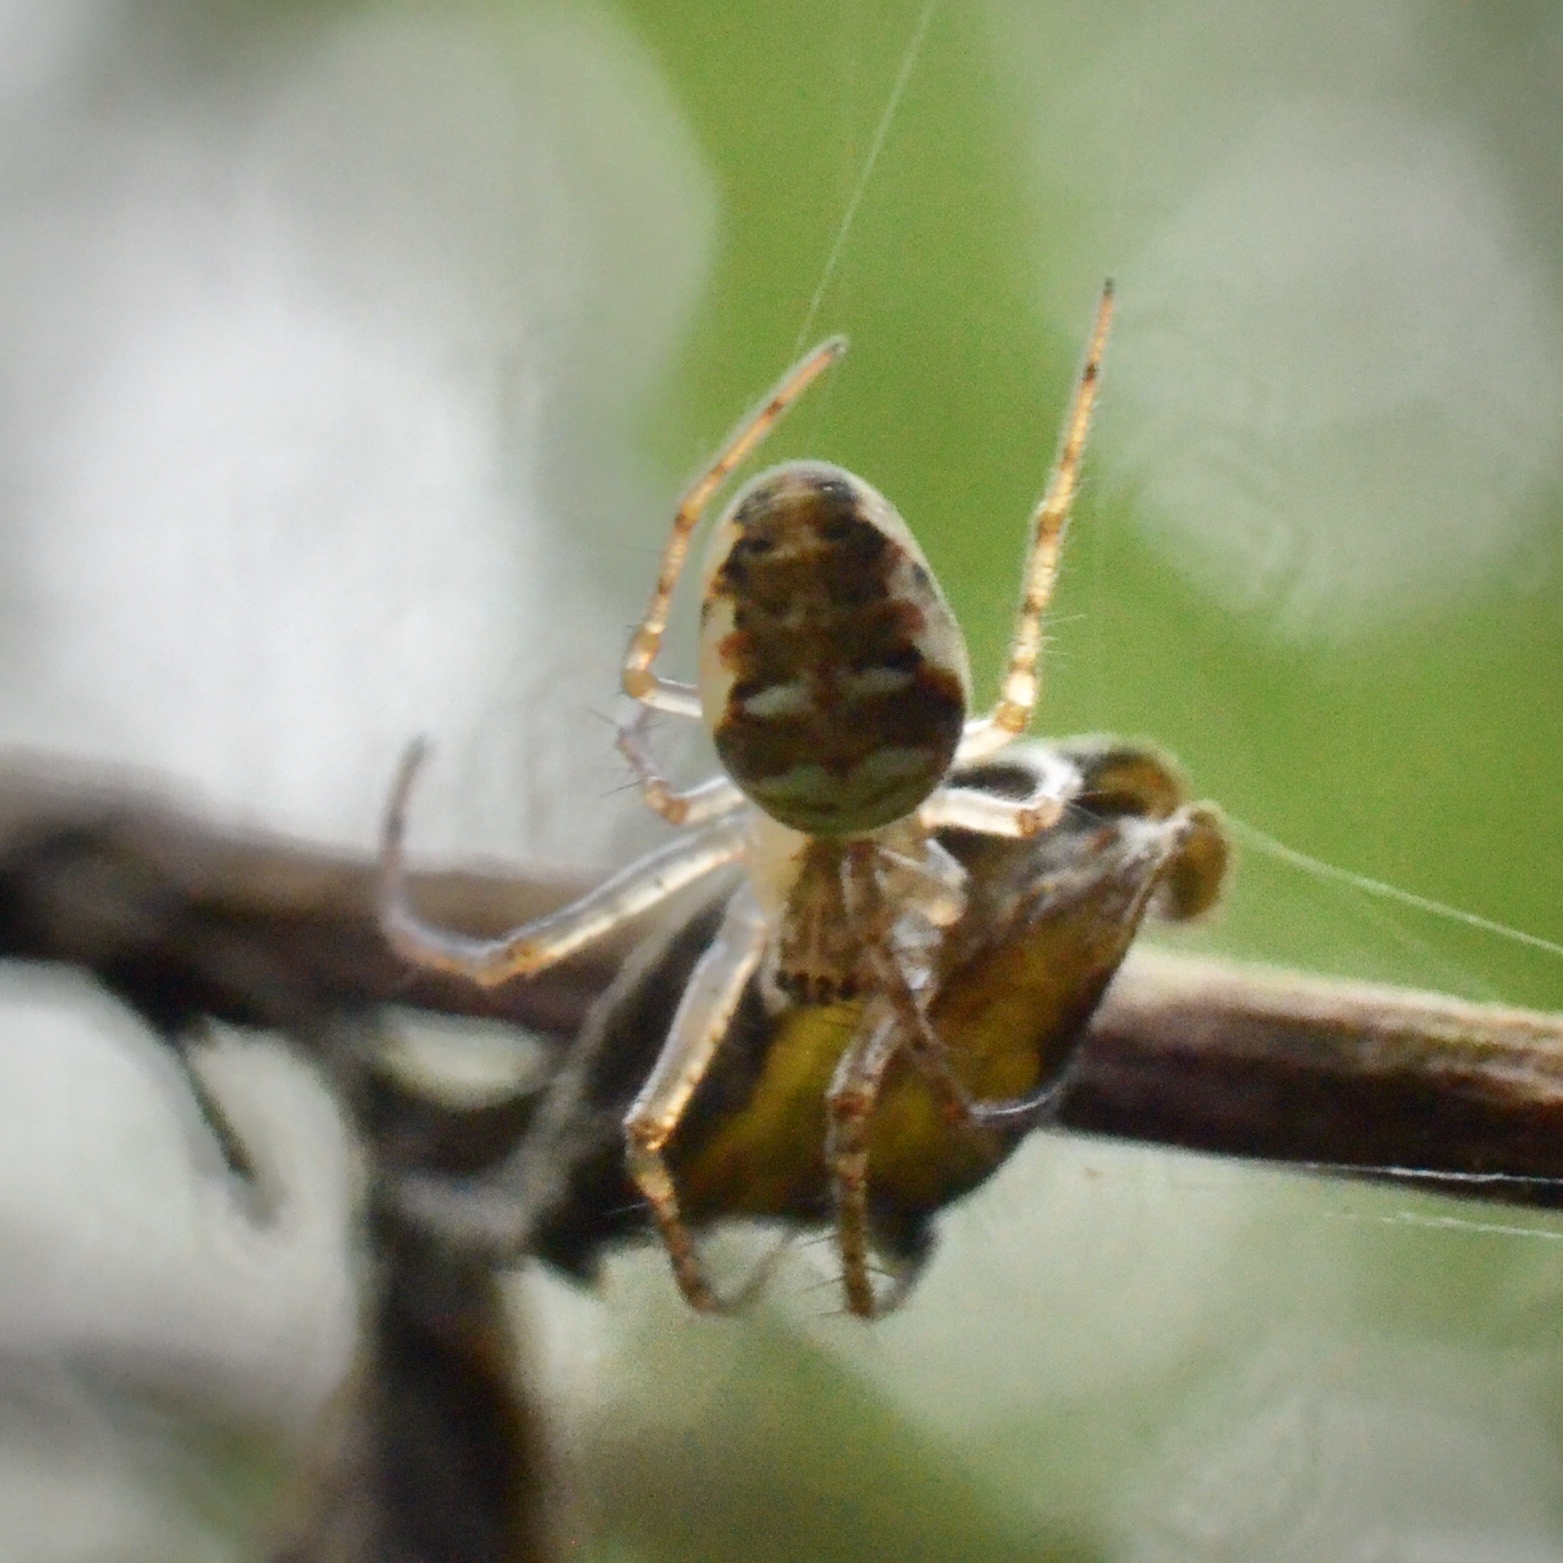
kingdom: Animalia
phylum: Arthropoda
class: Arachnida
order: Araneae
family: Tetragnathidae
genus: Metellina
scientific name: Metellina mengei
